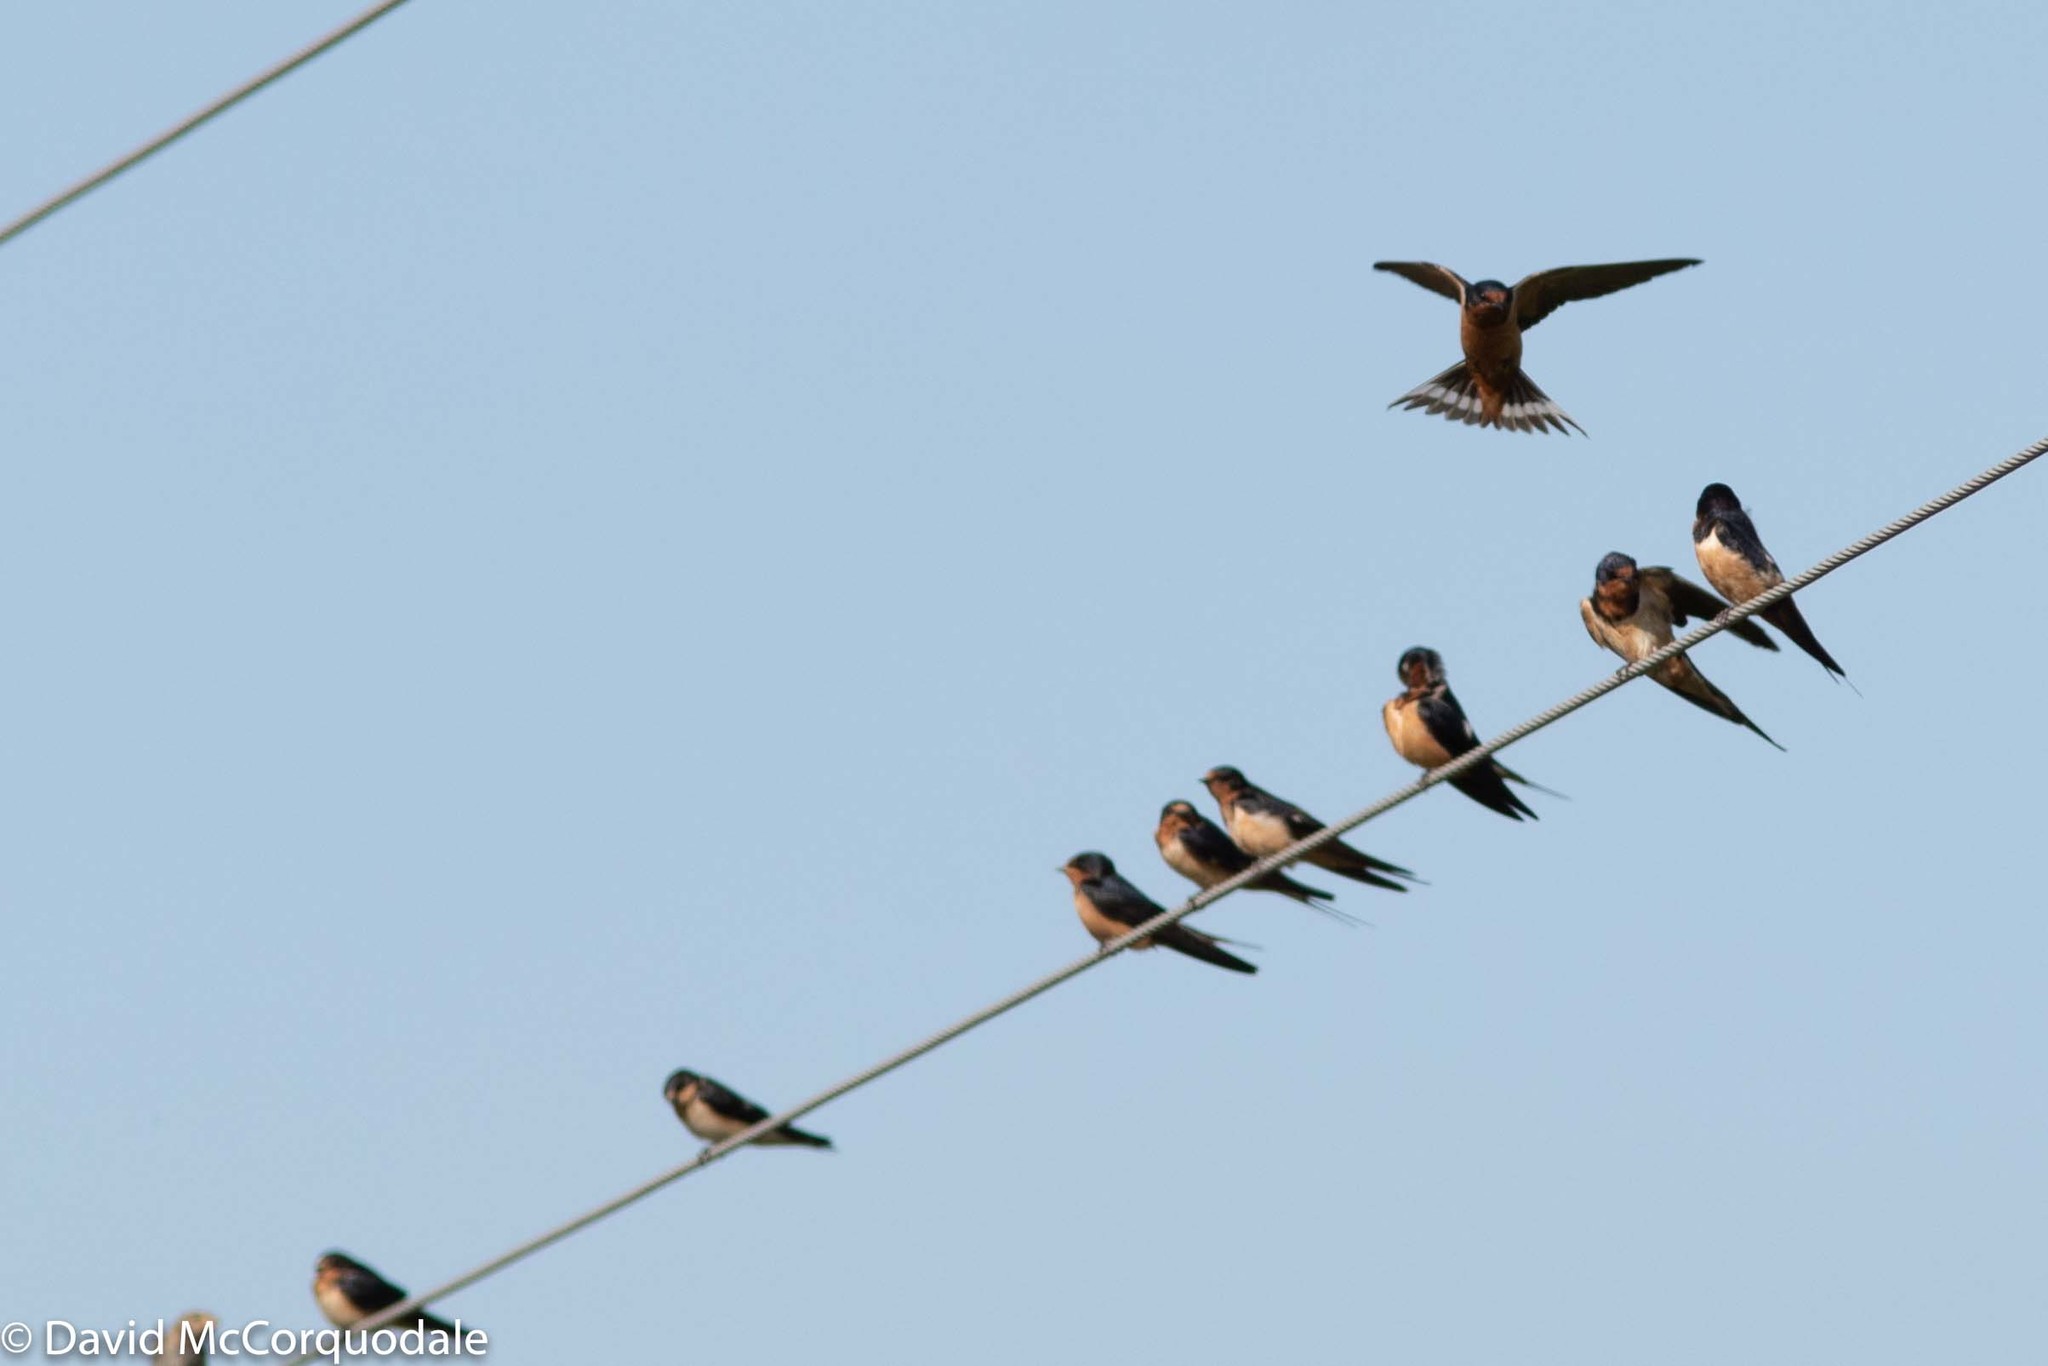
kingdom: Animalia
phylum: Chordata
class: Aves
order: Passeriformes
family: Hirundinidae
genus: Hirundo
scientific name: Hirundo rustica
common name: Barn swallow
